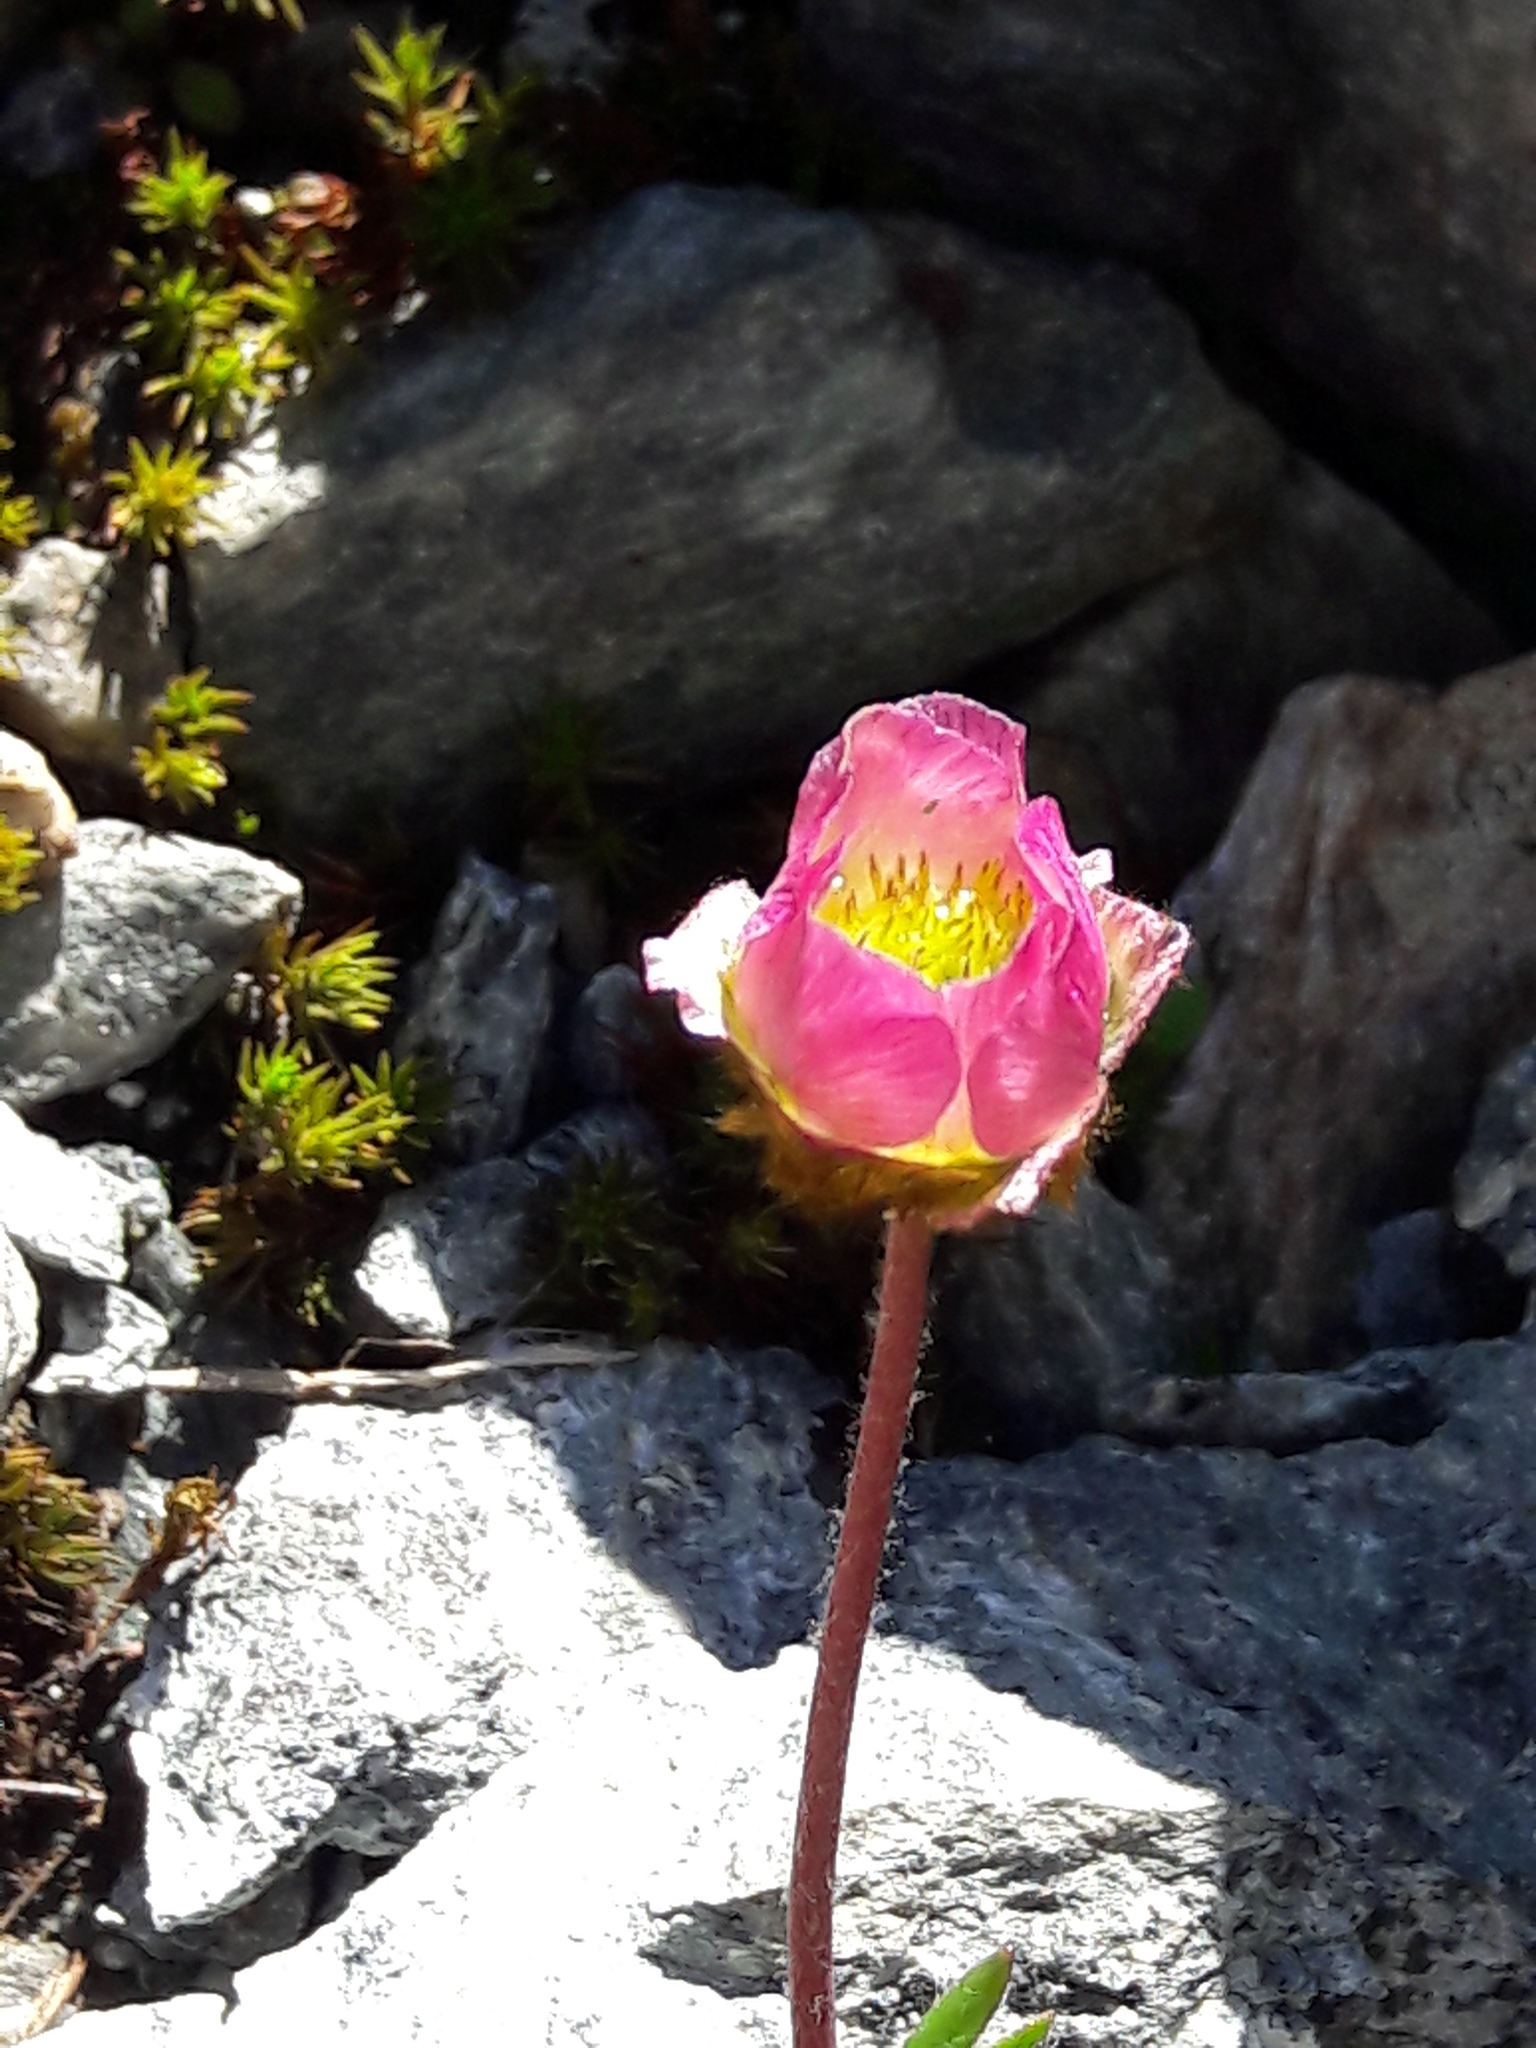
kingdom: Plantae
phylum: Tracheophyta
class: Magnoliopsida
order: Ranunculales
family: Ranunculaceae
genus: Ranunculus
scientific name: Ranunculus glacialis
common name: Glacier buttercup
